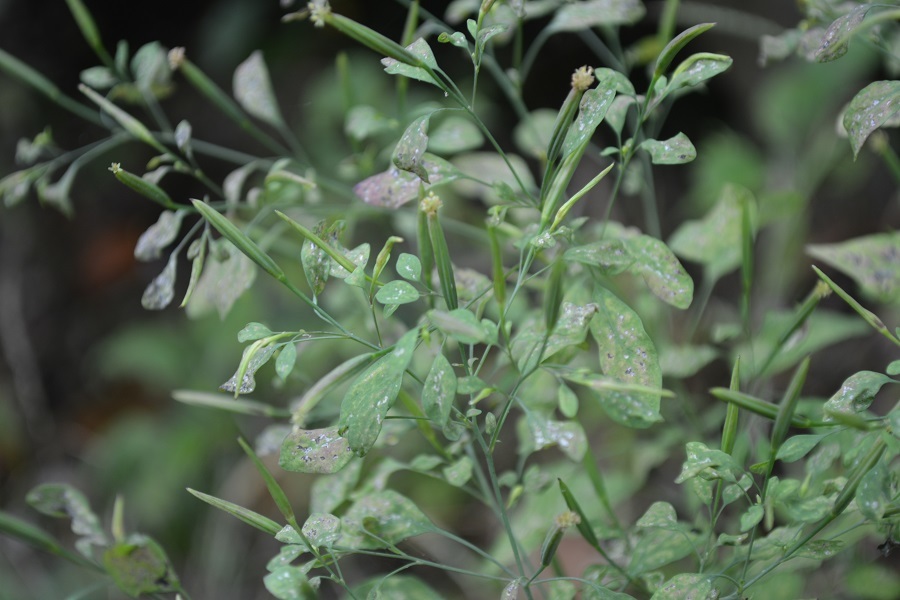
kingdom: Plantae
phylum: Tracheophyta
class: Magnoliopsida
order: Asterales
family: Asteraceae
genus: Porophyllum
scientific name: Porophyllum ruderale
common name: Yerba porosa
